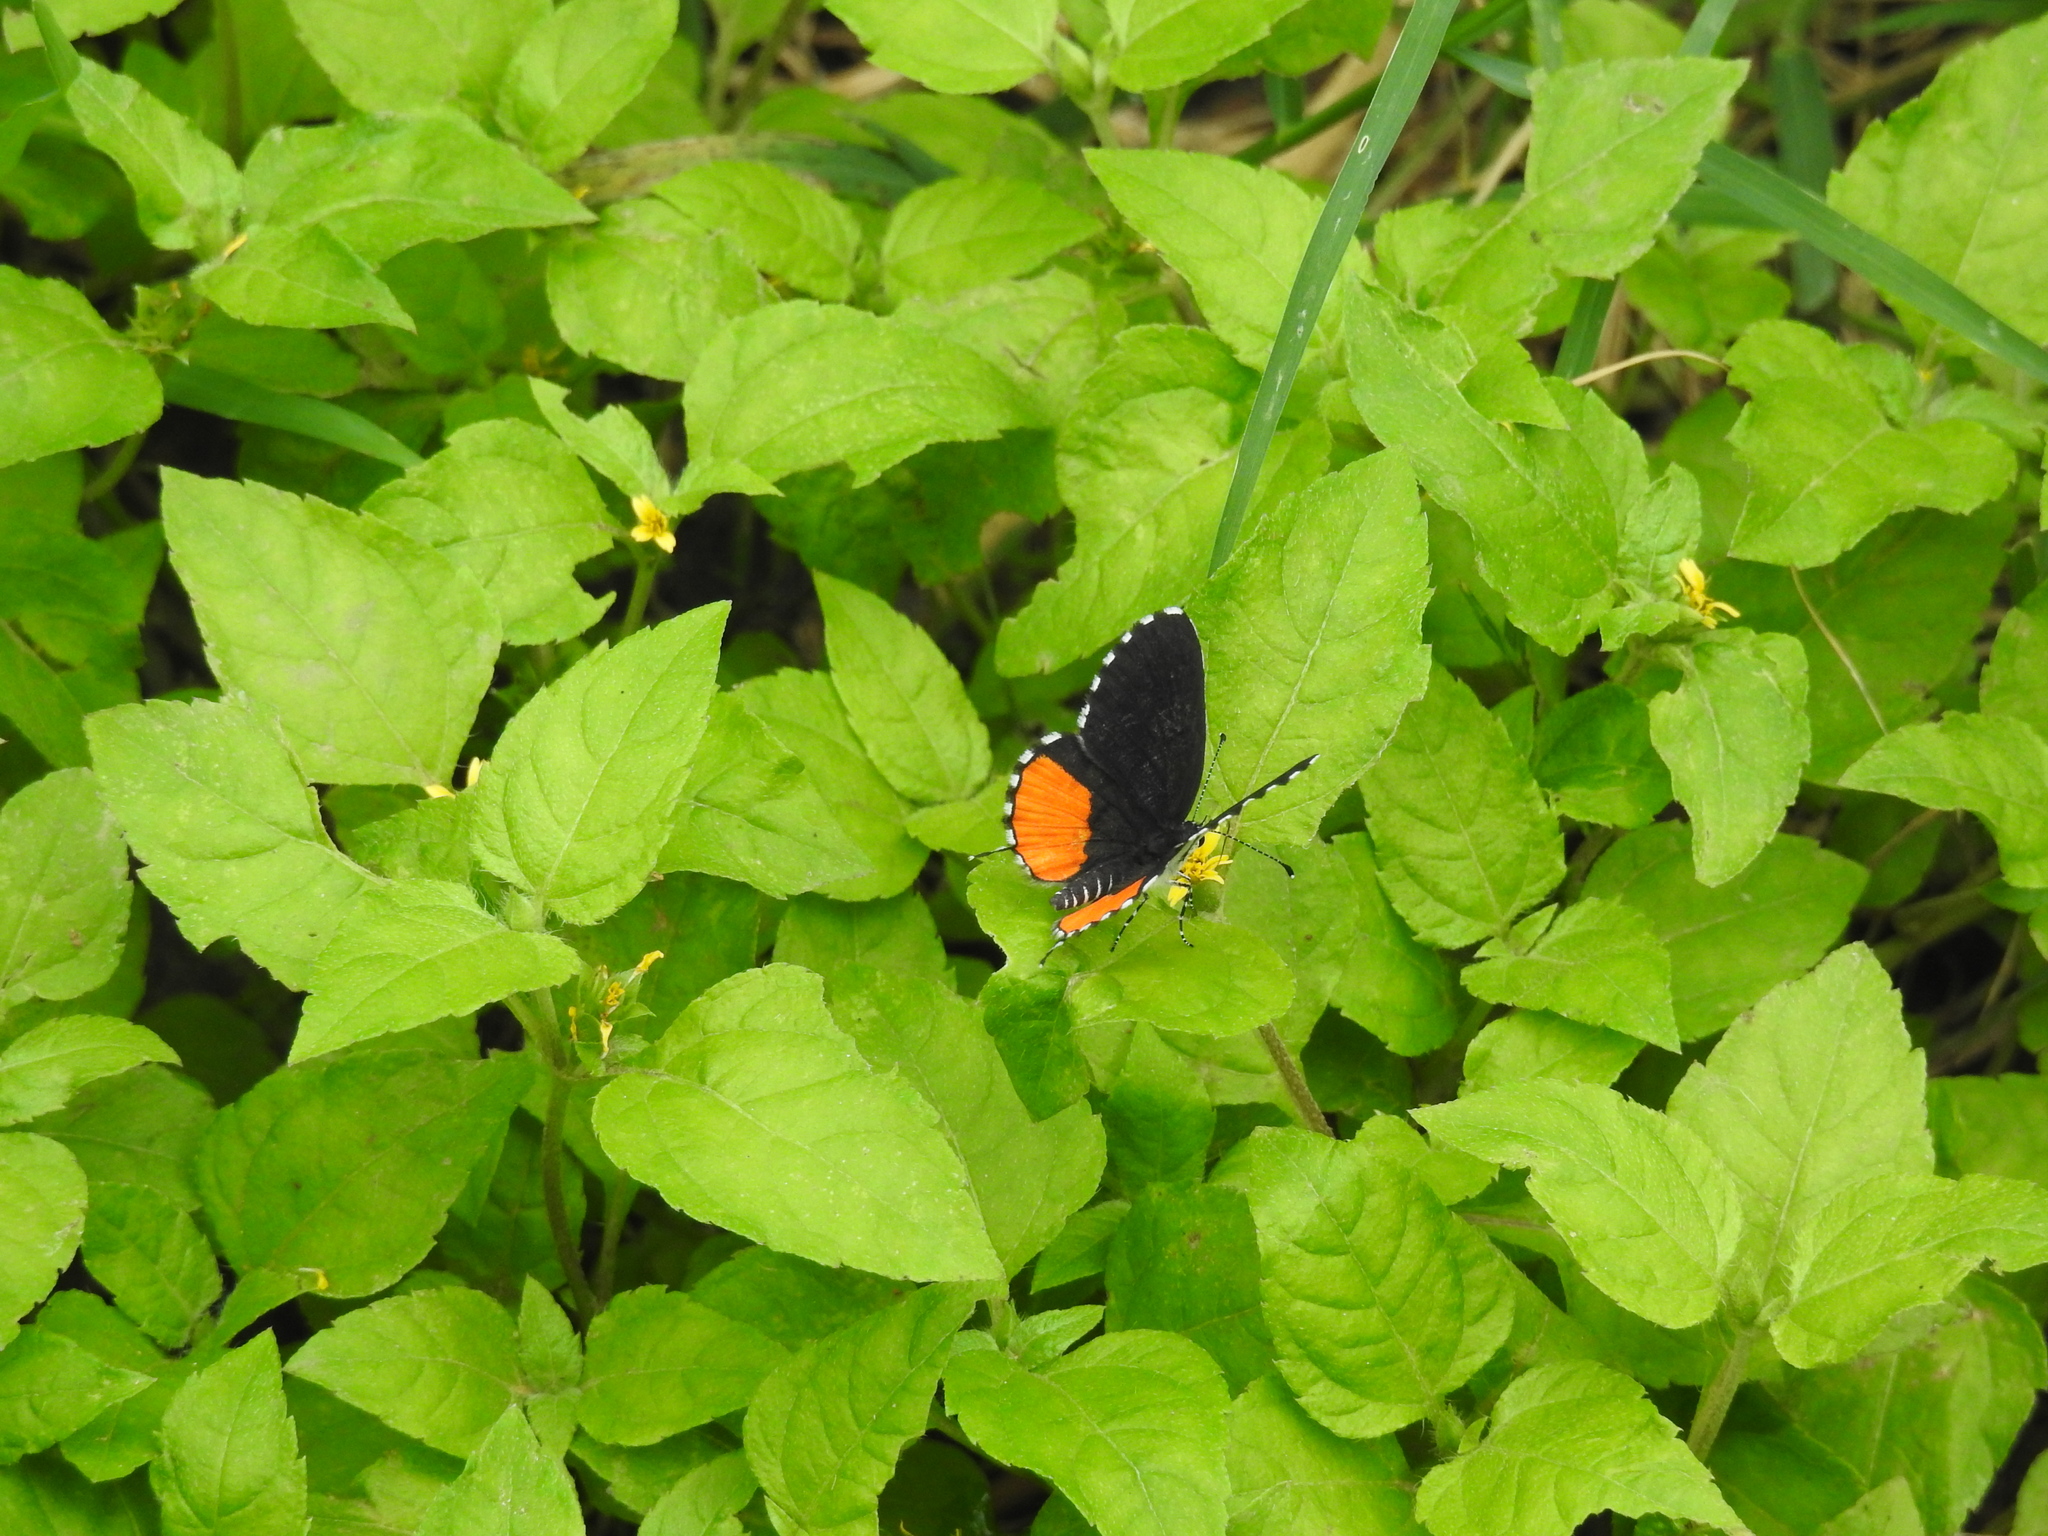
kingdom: Animalia
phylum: Arthropoda
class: Insecta
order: Lepidoptera
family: Lycaenidae
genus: Talicada
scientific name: Talicada nyseus
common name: Red pierrot
